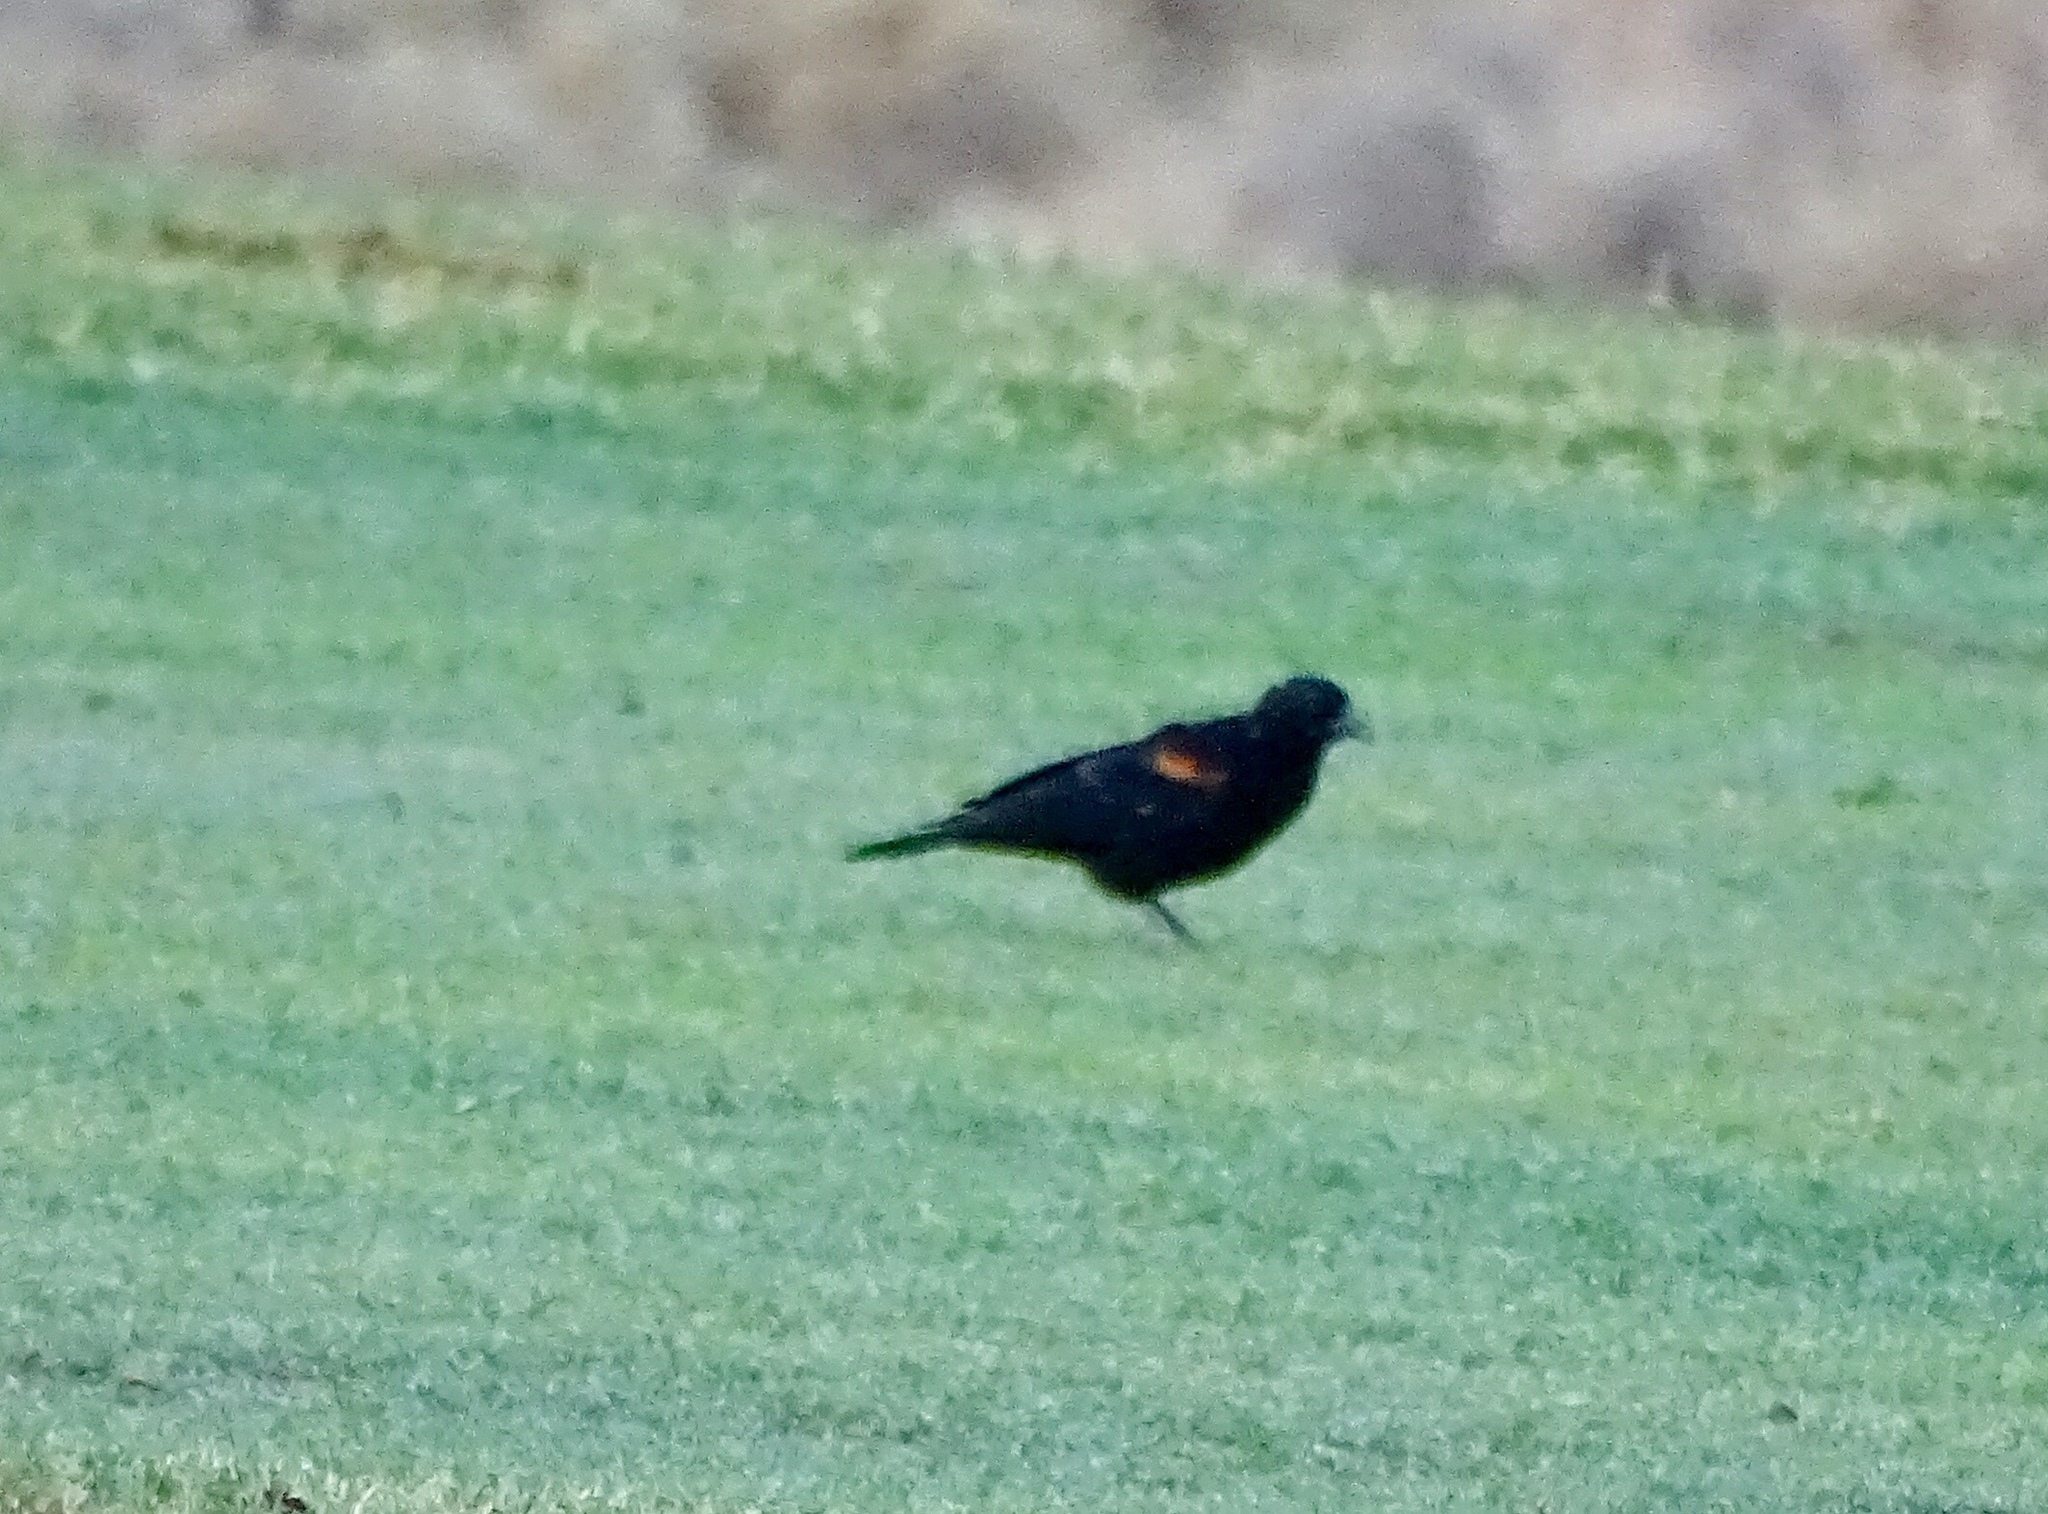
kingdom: Animalia
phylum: Chordata
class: Aves
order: Passeriformes
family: Icteridae
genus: Agelaius
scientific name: Agelaius phoeniceus
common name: Red-winged blackbird
